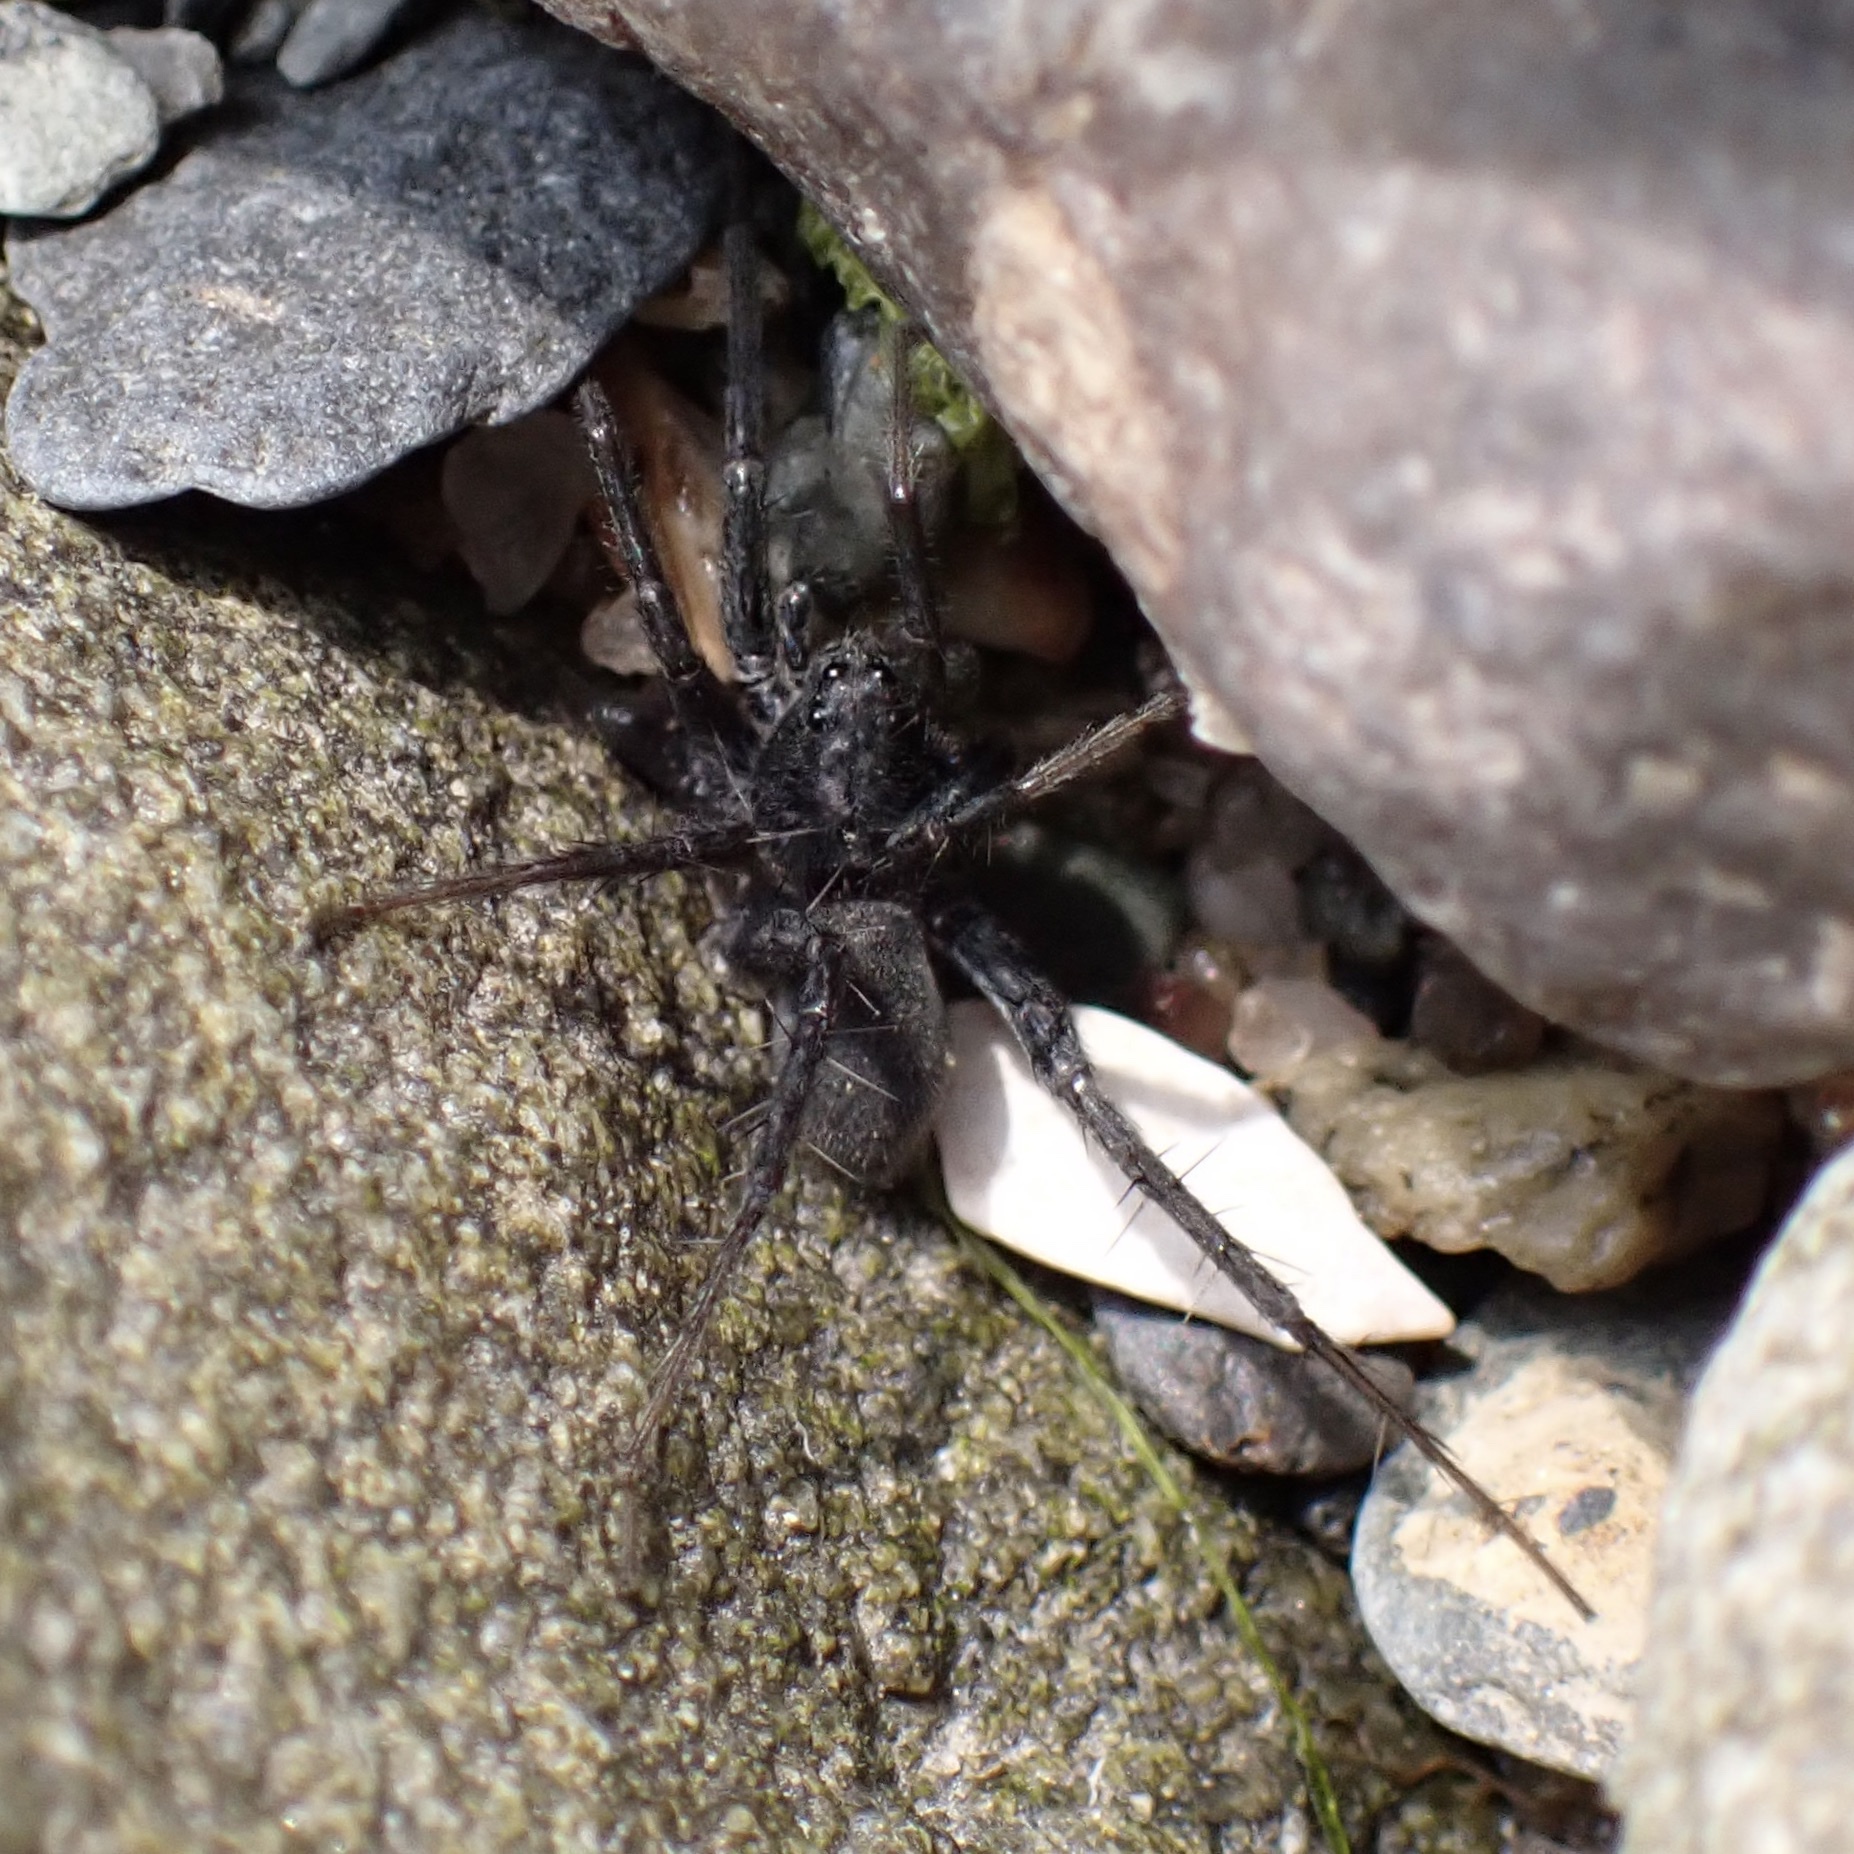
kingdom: Animalia
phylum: Arthropoda
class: Arachnida
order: Araneae
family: Lycosidae
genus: Pardosa
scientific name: Pardosa lapidicina
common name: Stone spider
